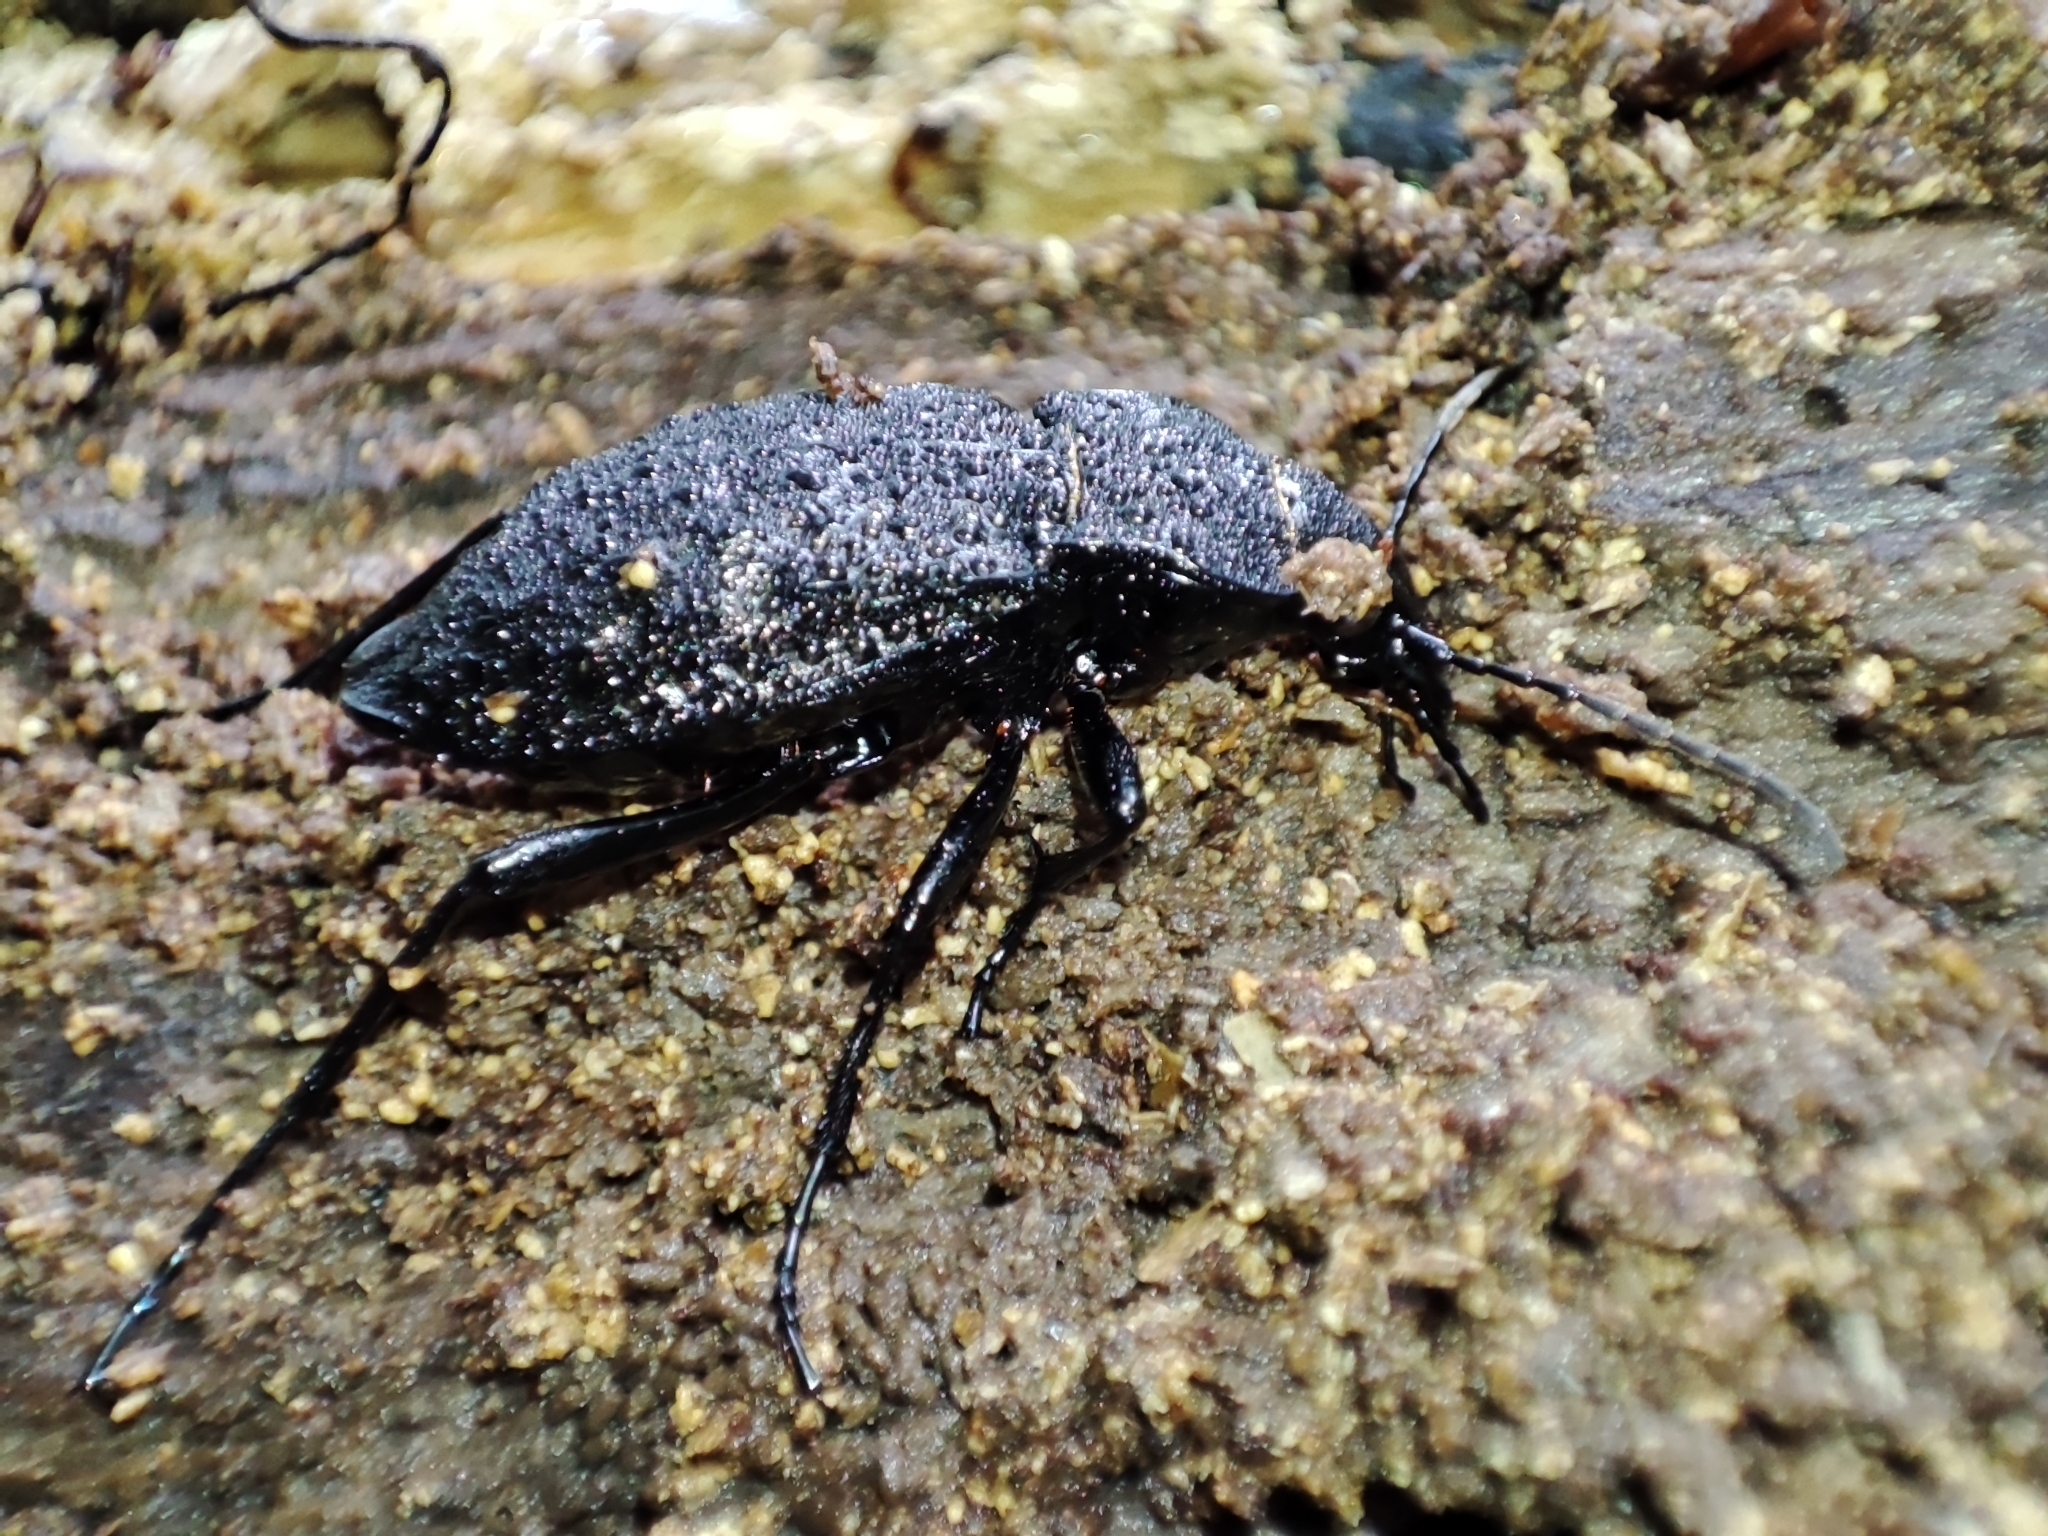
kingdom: Animalia
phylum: Arthropoda
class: Insecta
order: Coleoptera
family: Carabidae
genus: Carabus
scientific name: Carabus variolosus
